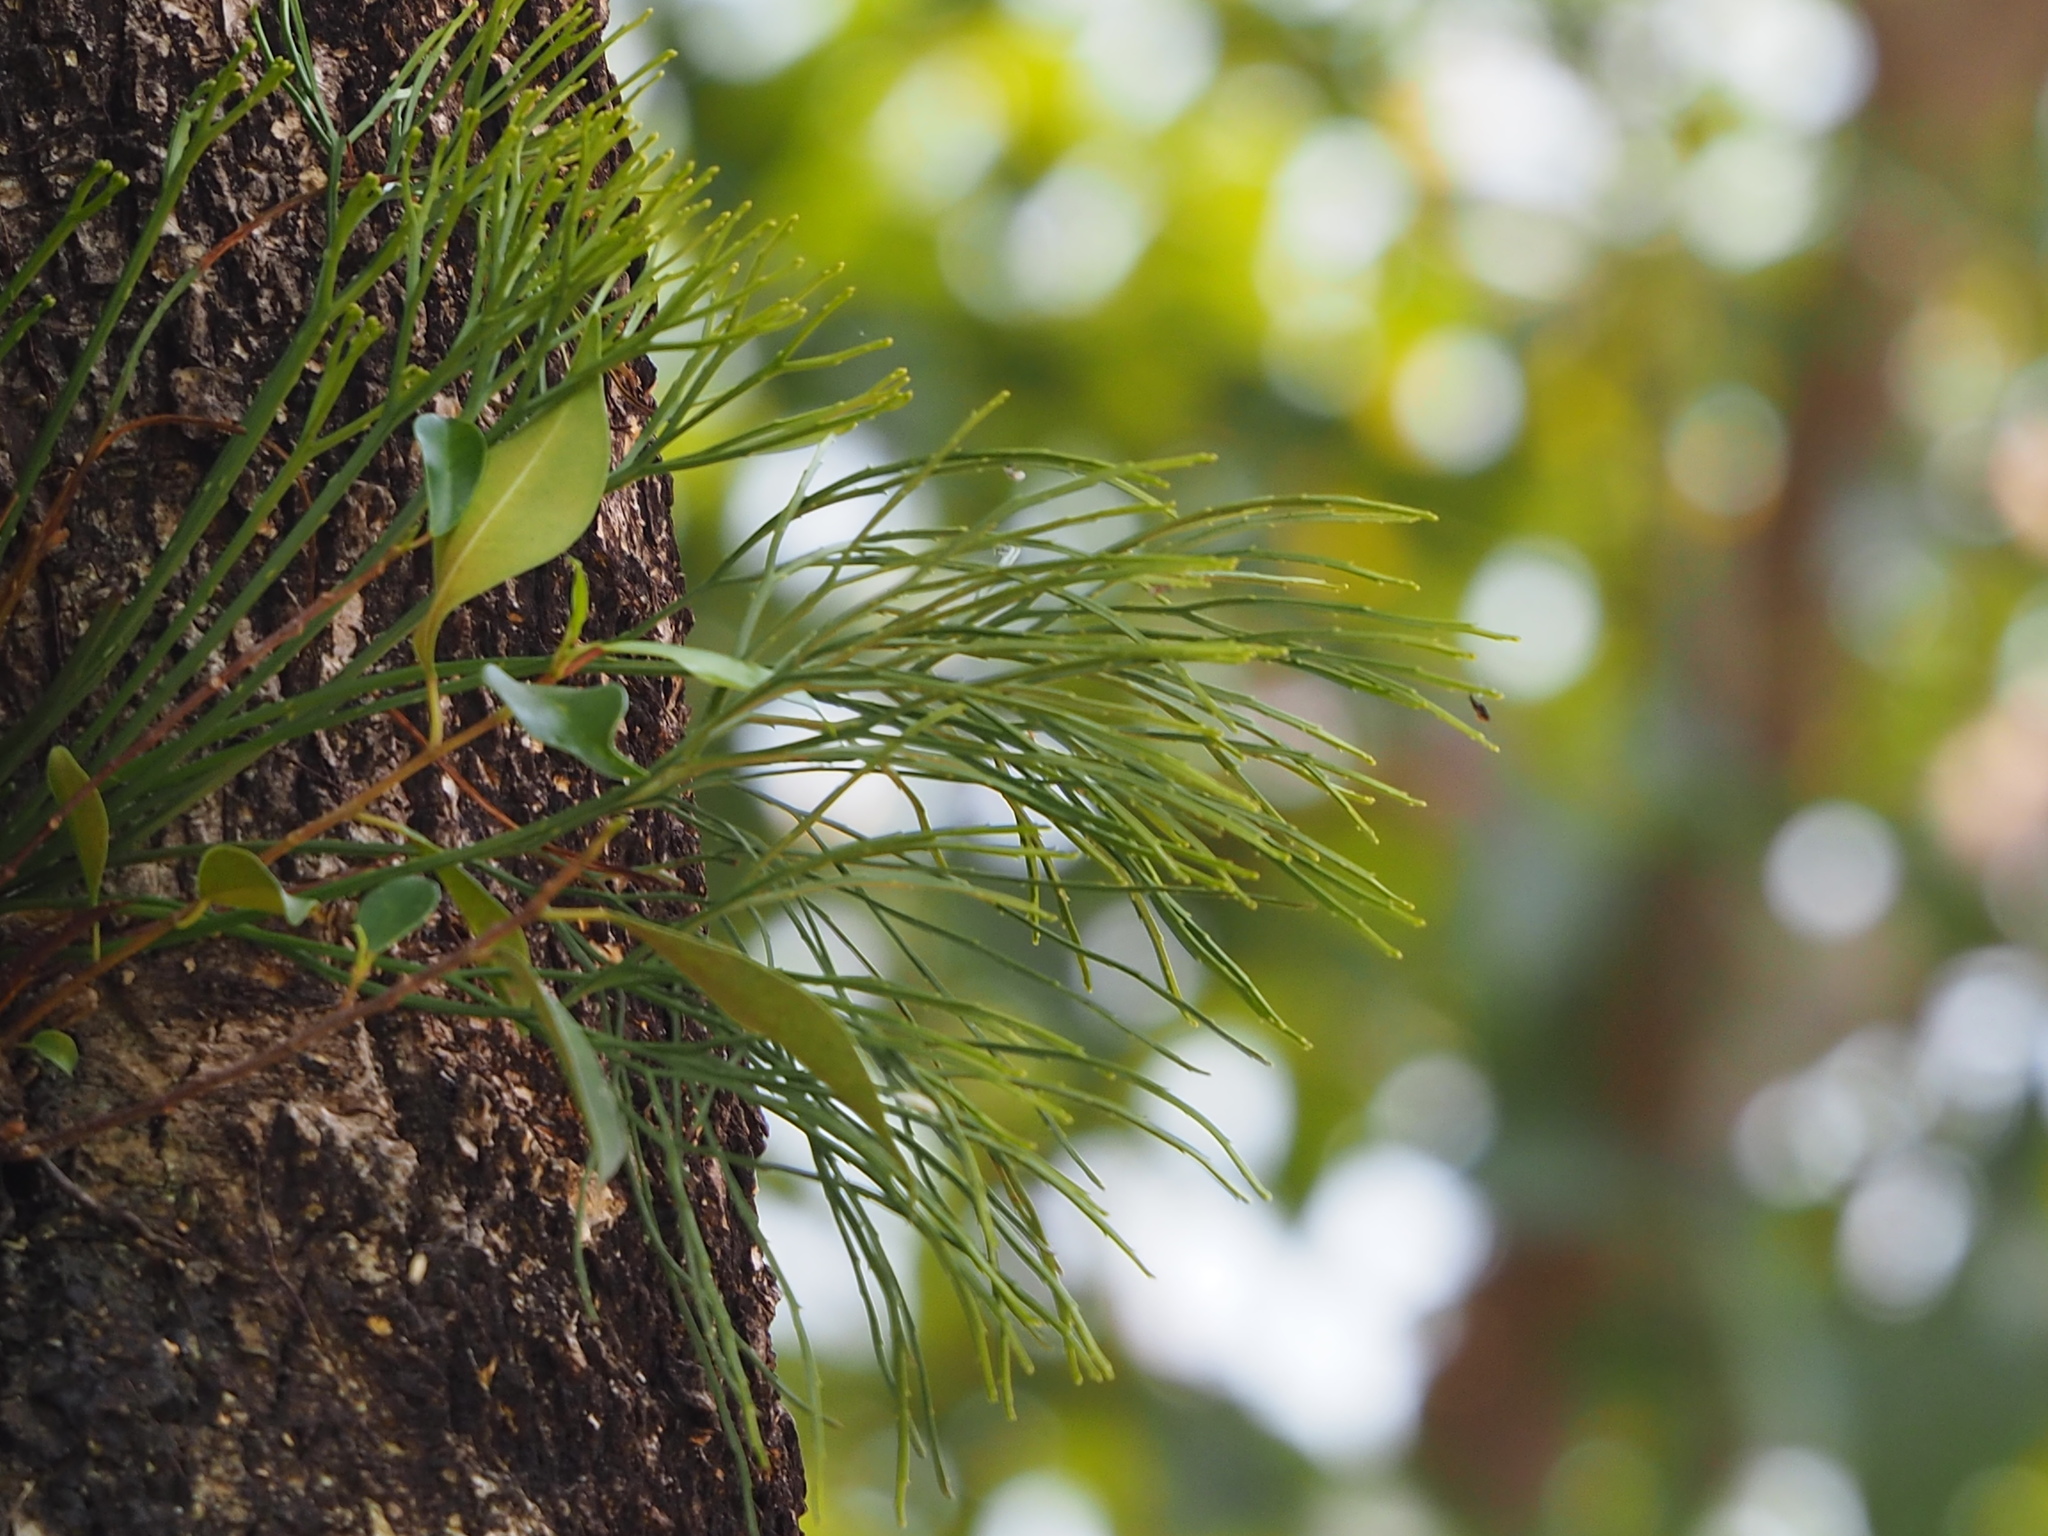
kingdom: Plantae
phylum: Tracheophyta
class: Polypodiopsida
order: Psilotales
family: Psilotaceae
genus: Psilotum
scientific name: Psilotum nudum
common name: Skeleton fork fern
